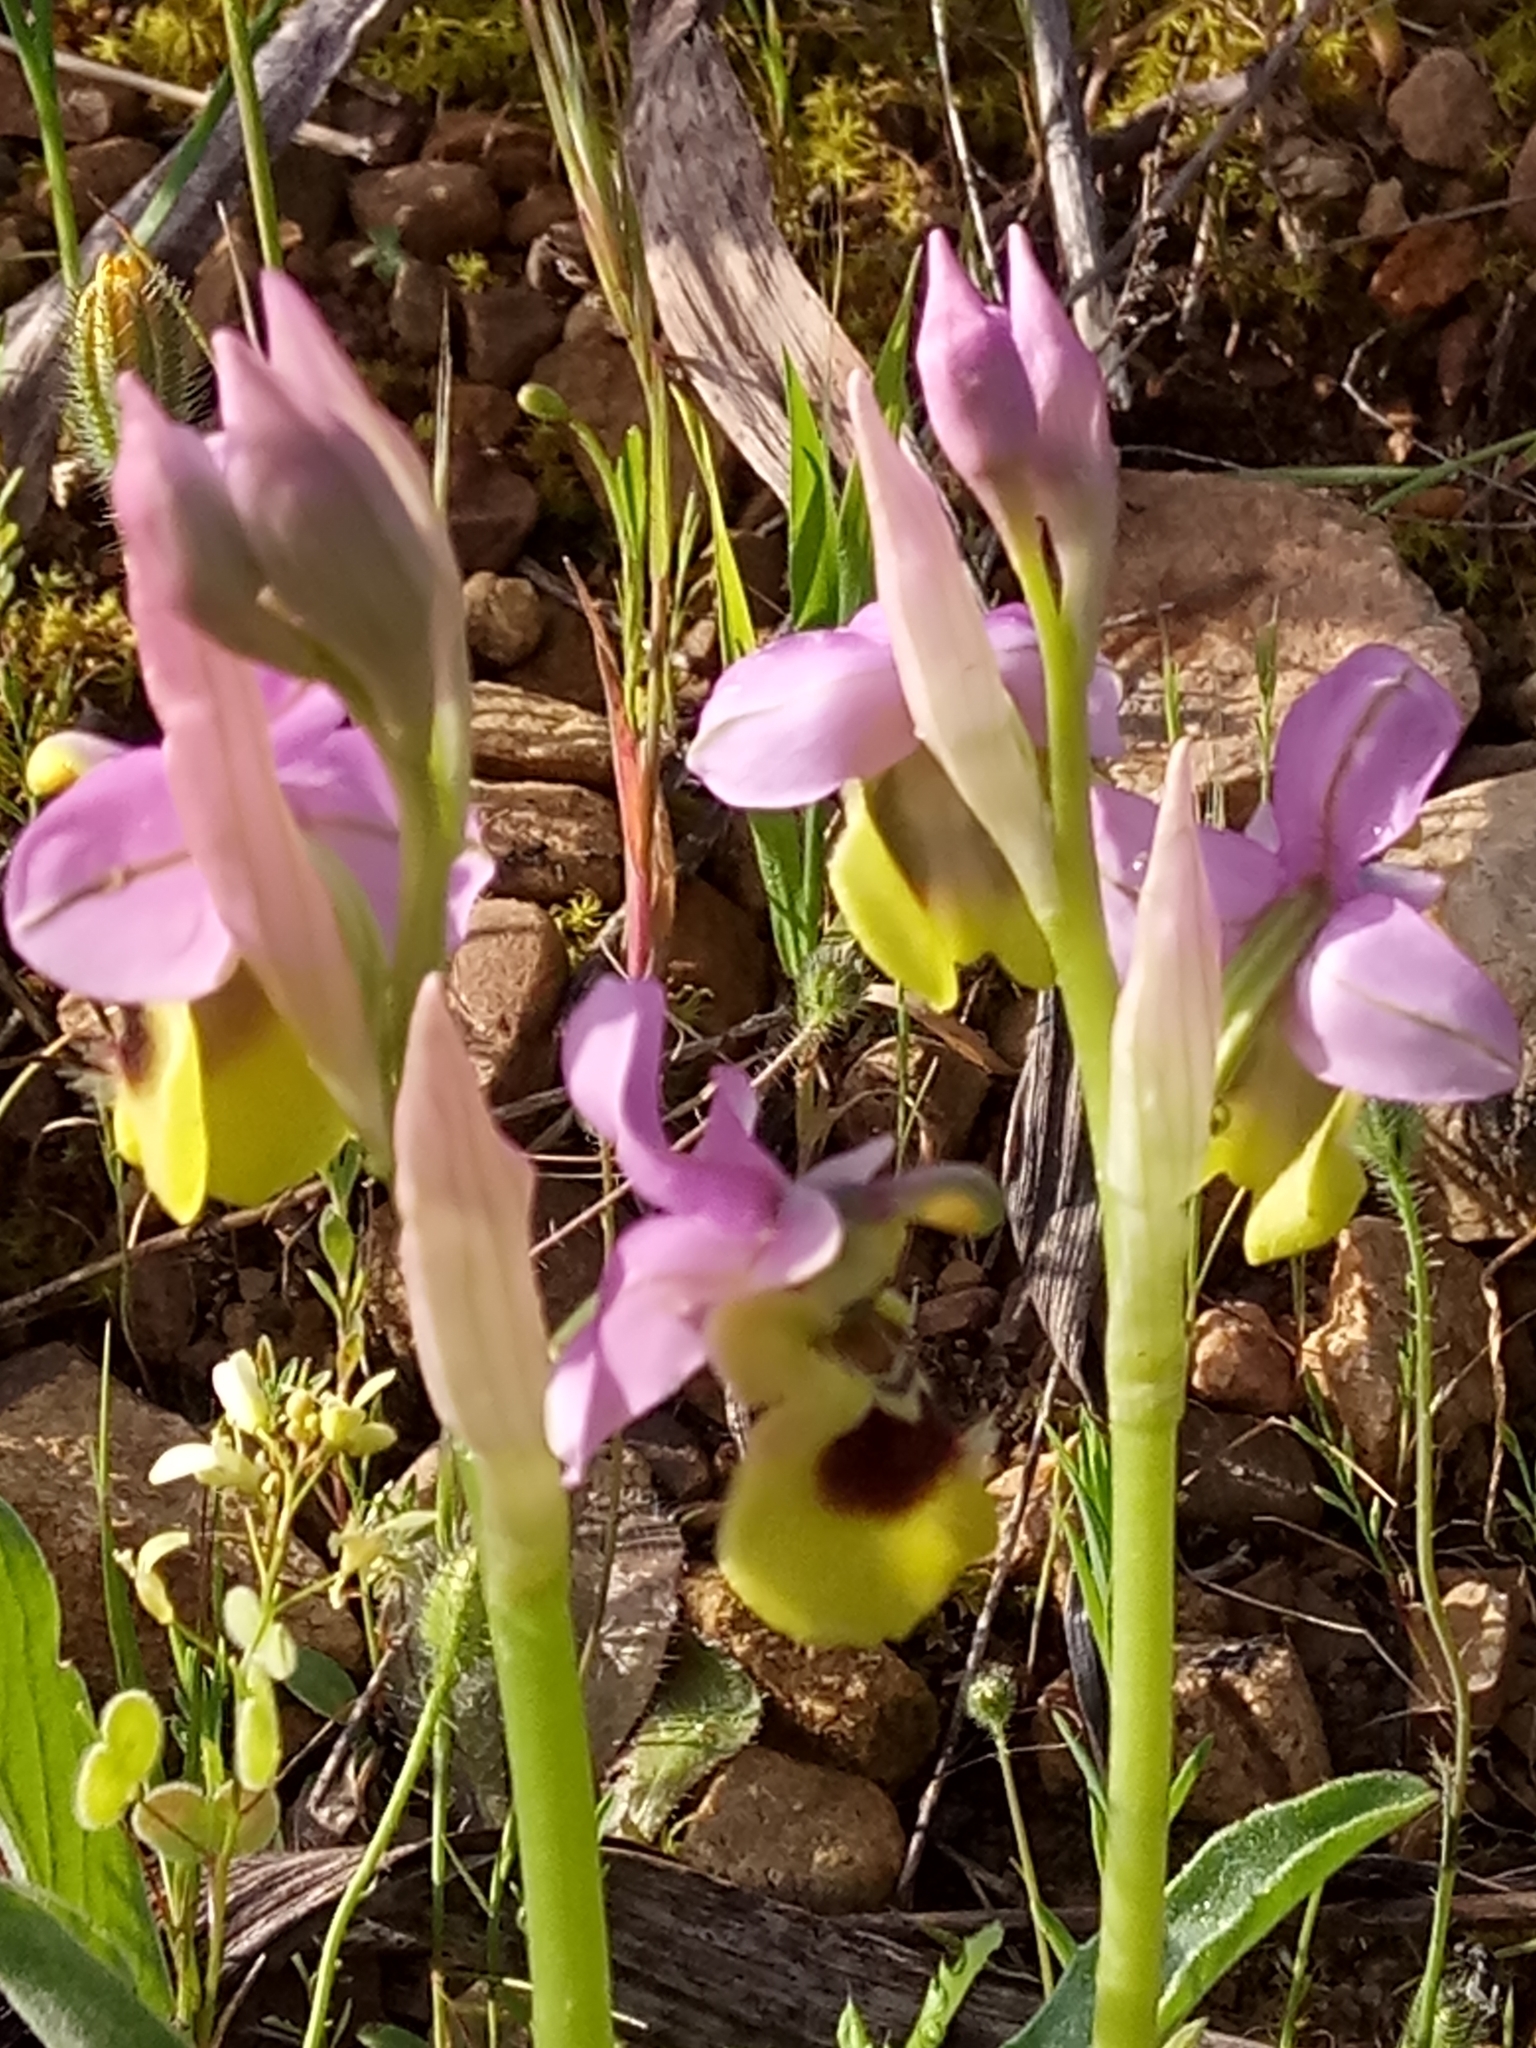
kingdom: Plantae
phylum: Tracheophyta
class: Liliopsida
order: Asparagales
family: Orchidaceae
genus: Ophrys
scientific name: Ophrys tenthredinifera
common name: Sawfly orchid
